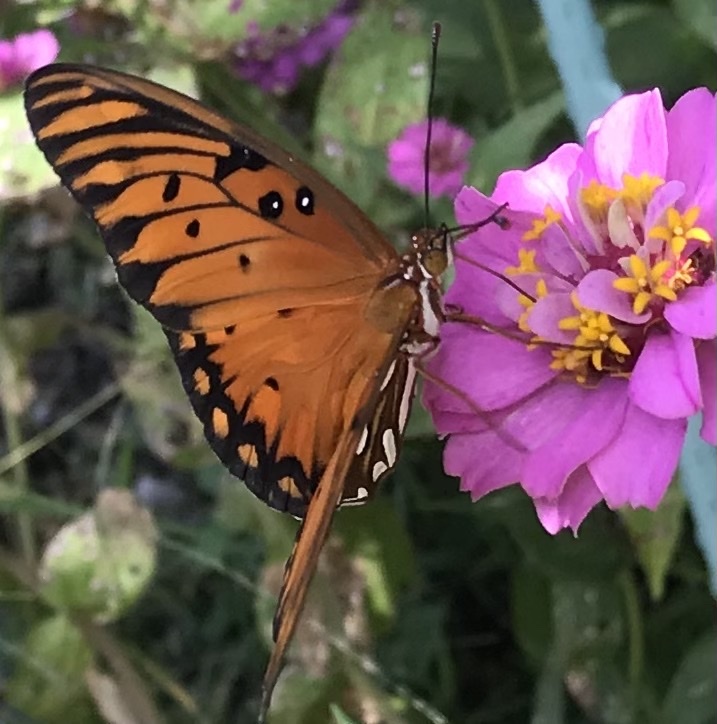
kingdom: Animalia
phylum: Arthropoda
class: Insecta
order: Lepidoptera
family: Nymphalidae
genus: Dione
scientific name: Dione vanillae
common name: Gulf fritillary
